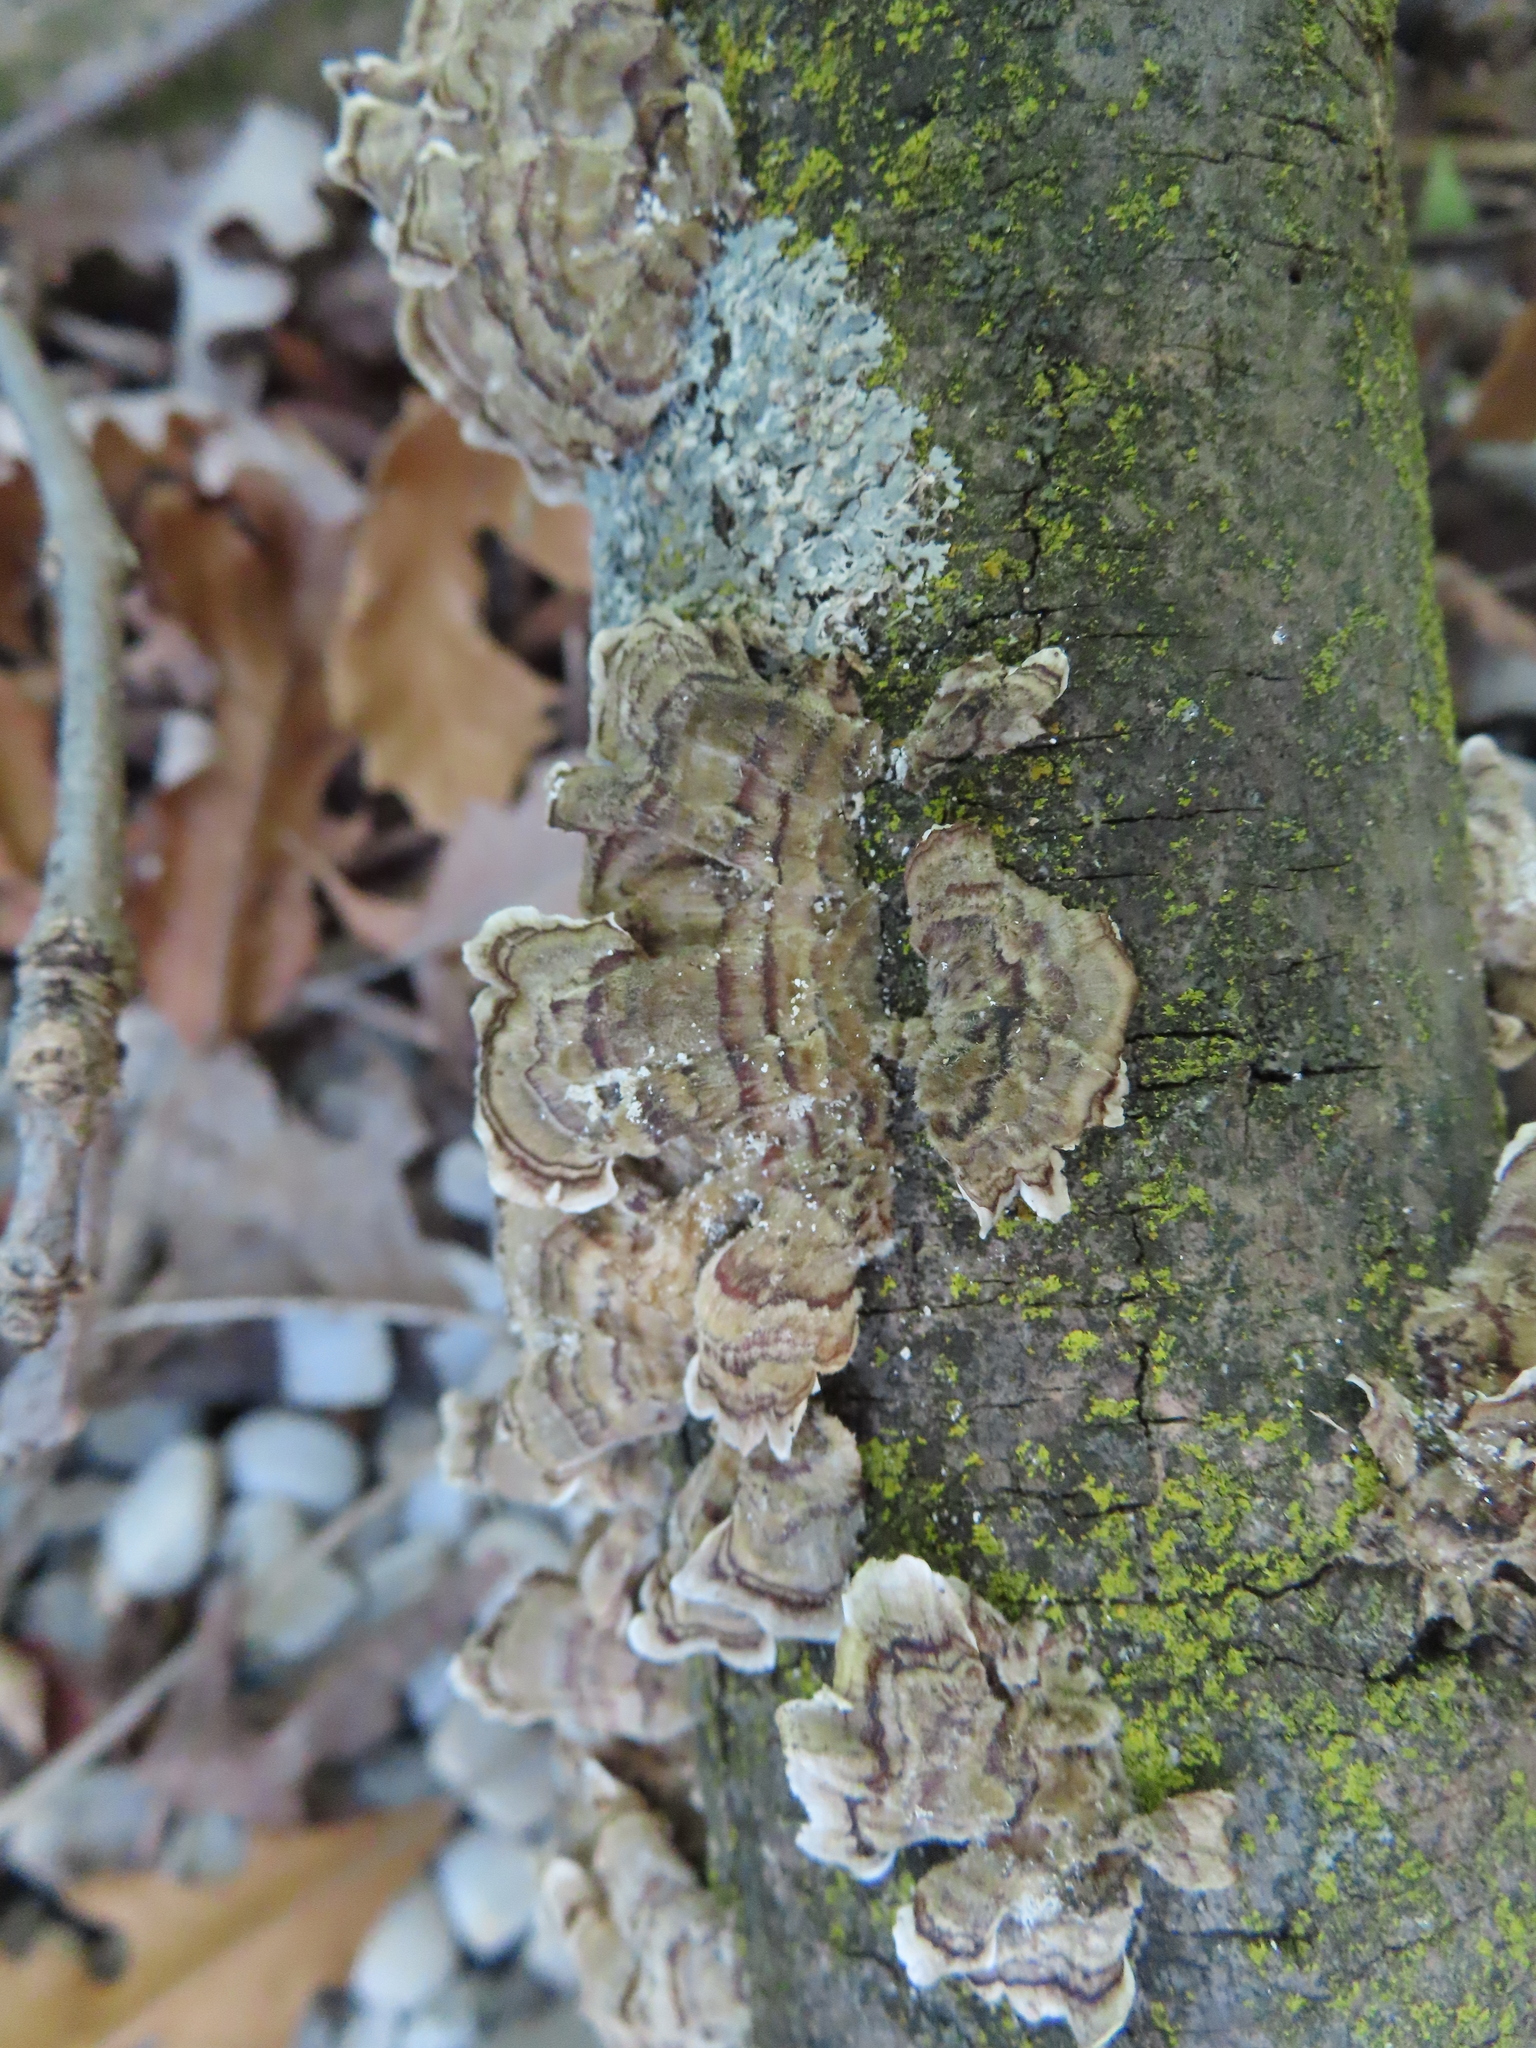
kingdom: Fungi
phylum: Basidiomycota
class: Agaricomycetes
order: Polyporales
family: Polyporaceae
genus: Trametes
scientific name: Trametes versicolor
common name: Turkeytail
